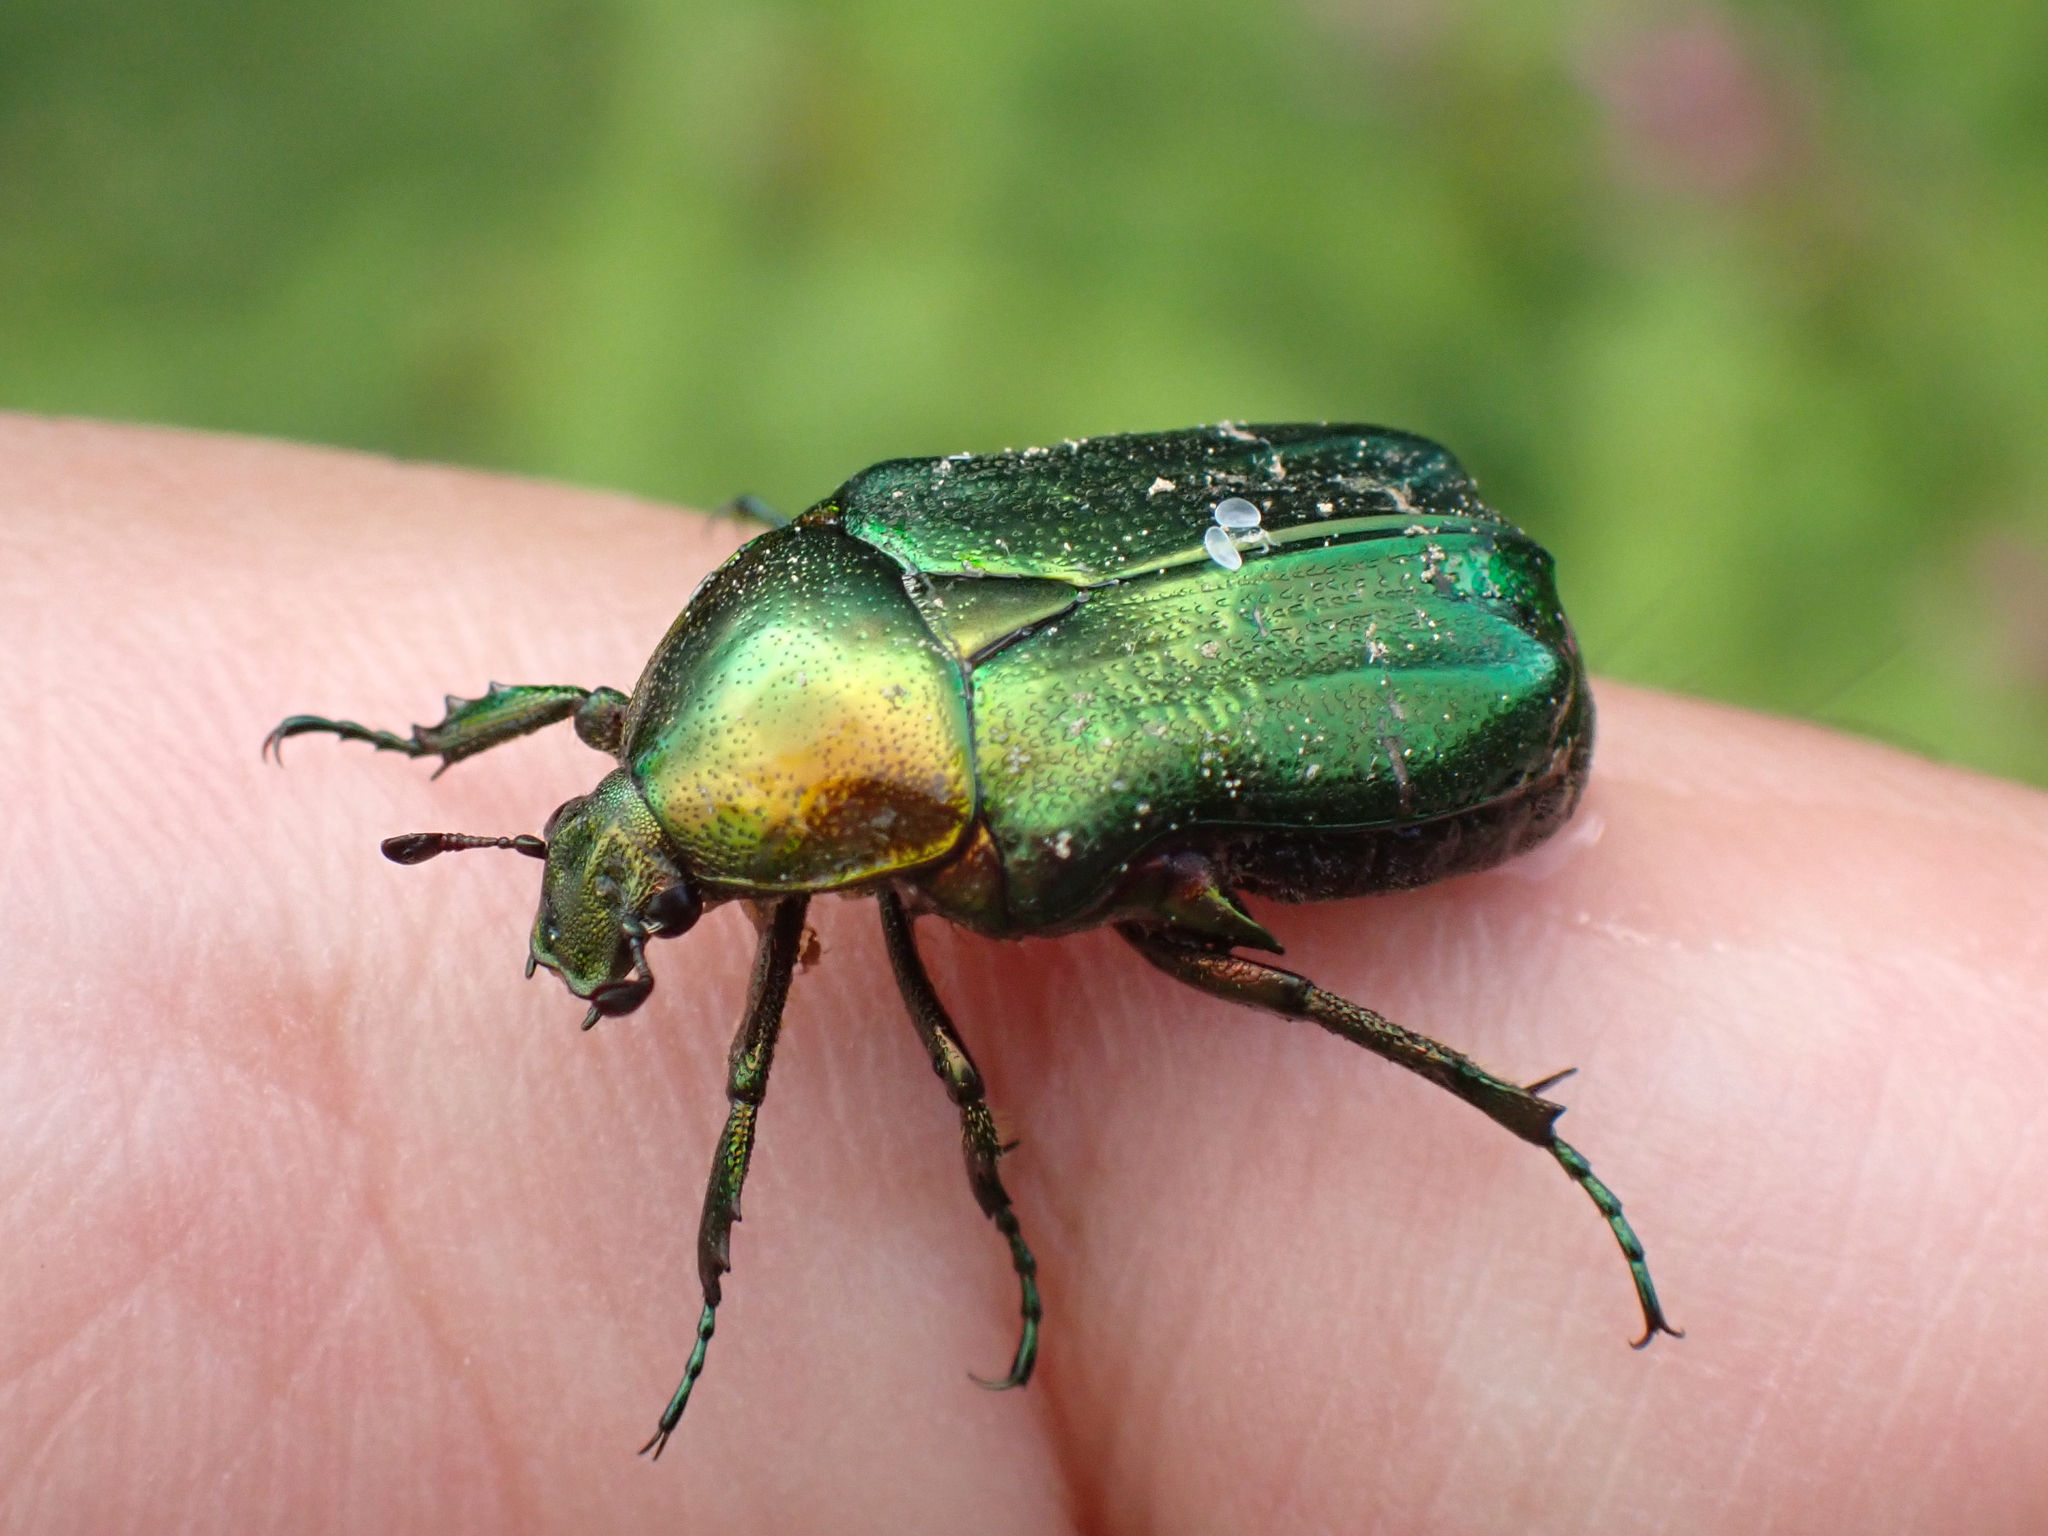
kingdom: Animalia
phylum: Arthropoda
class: Insecta
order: Coleoptera
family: Scarabaeidae
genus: Cetonia
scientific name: Cetonia aurata
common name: Rose chafer
